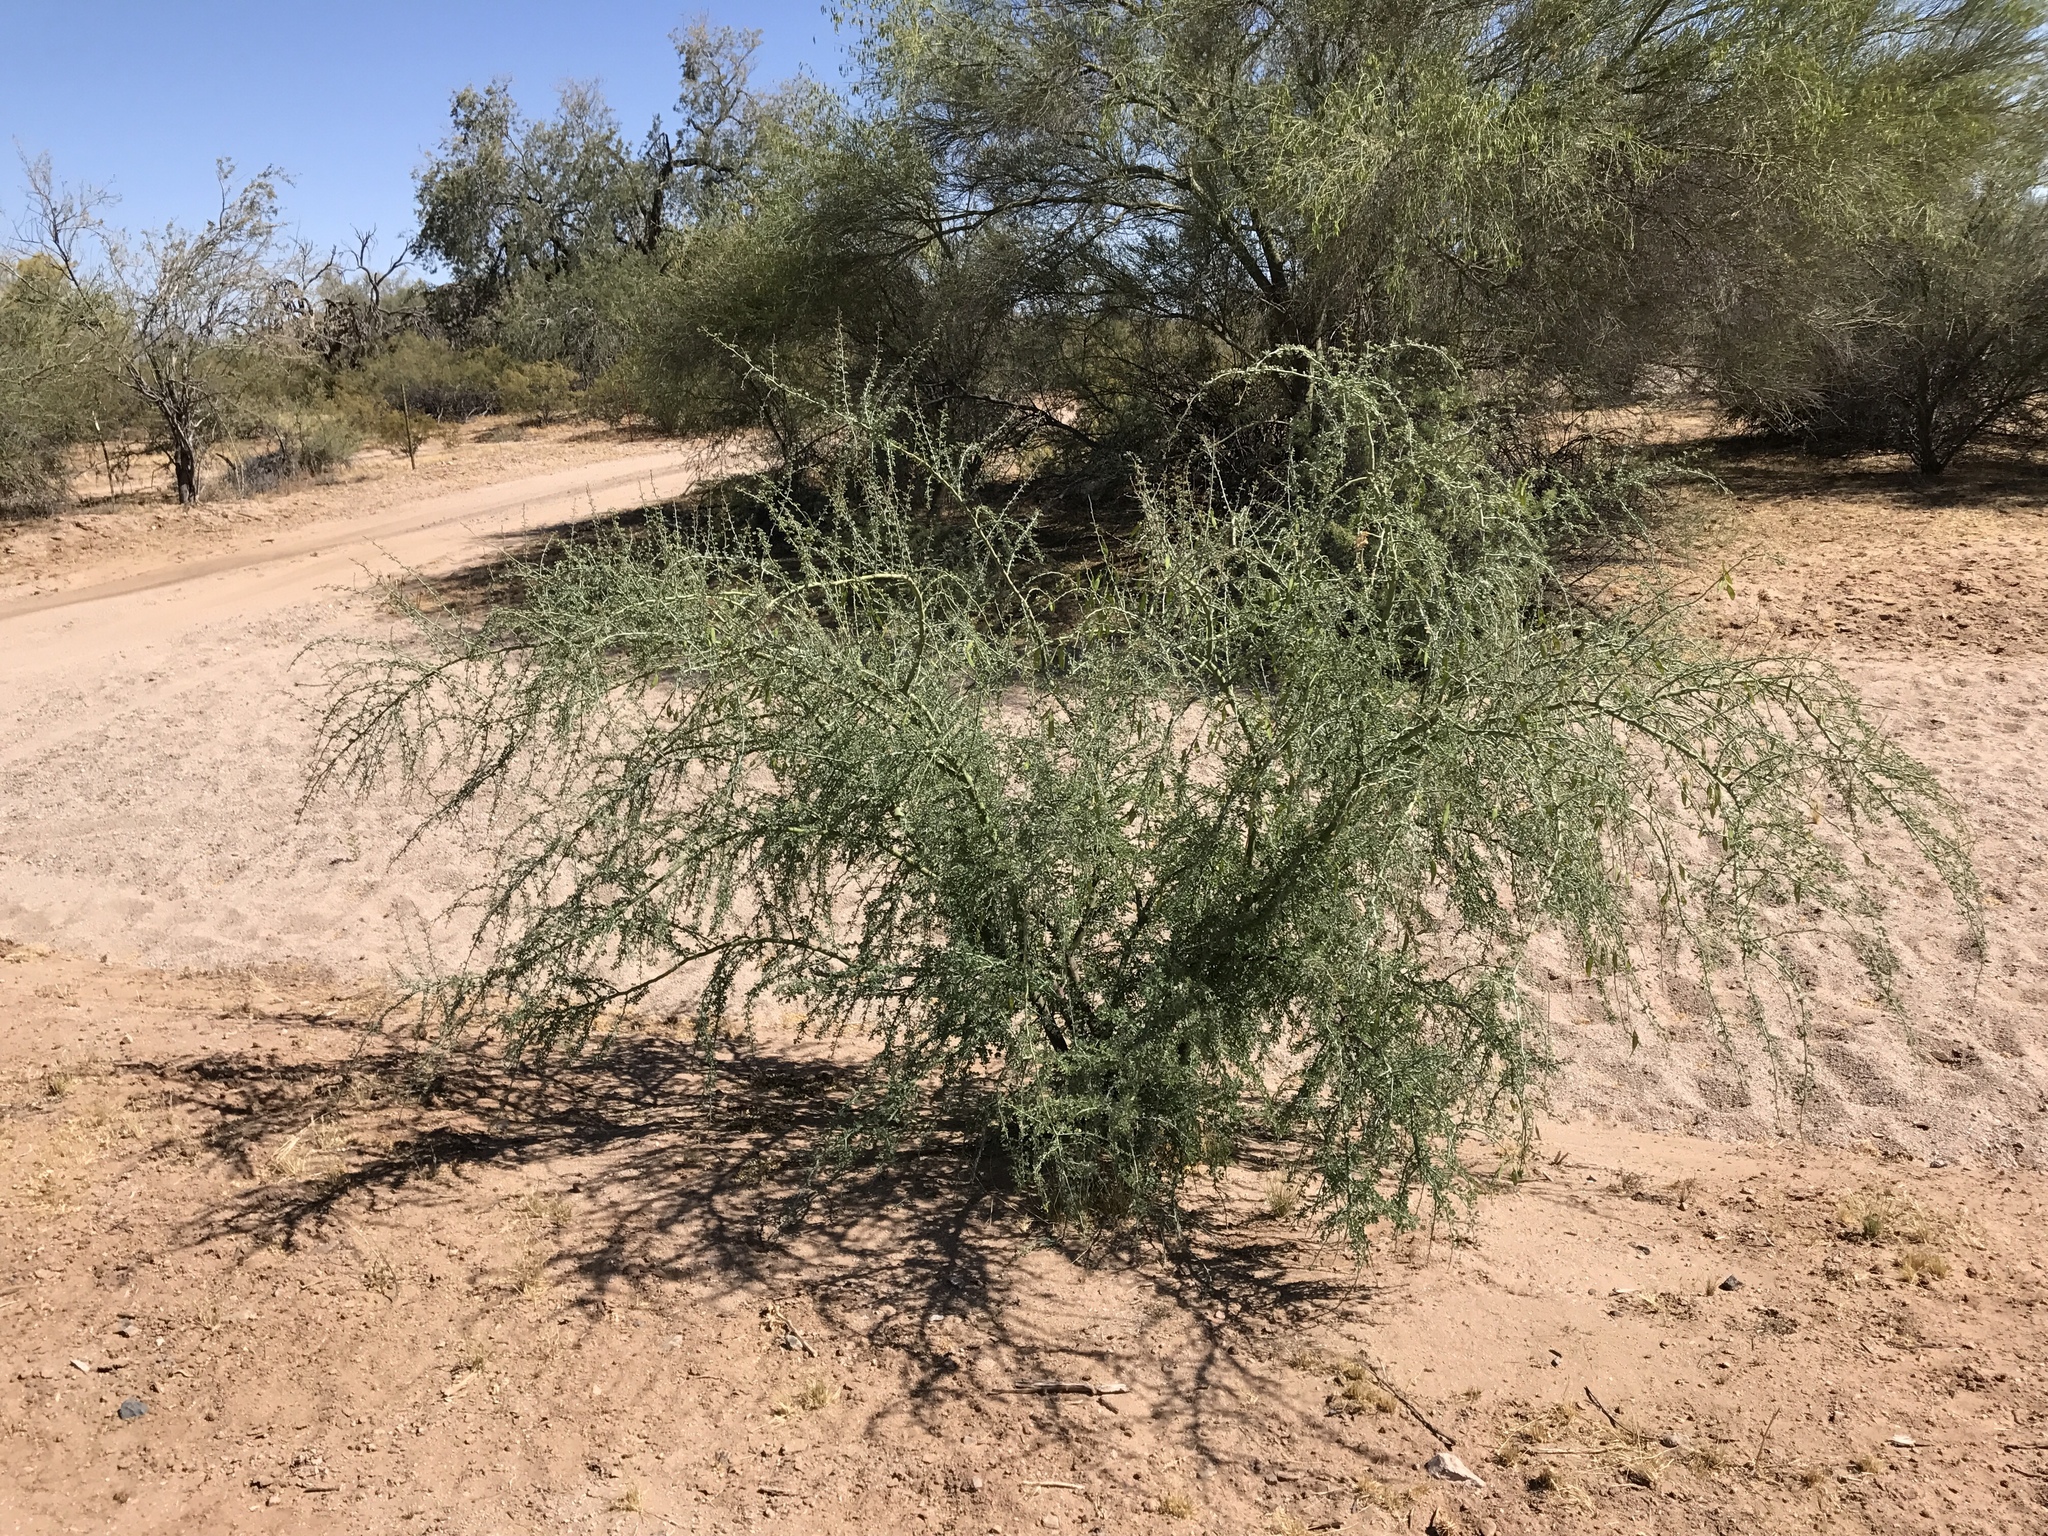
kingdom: Plantae
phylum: Tracheophyta
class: Magnoliopsida
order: Fabales
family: Fabaceae
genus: Parkinsonia
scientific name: Parkinsonia florida
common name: Blue paloverde
